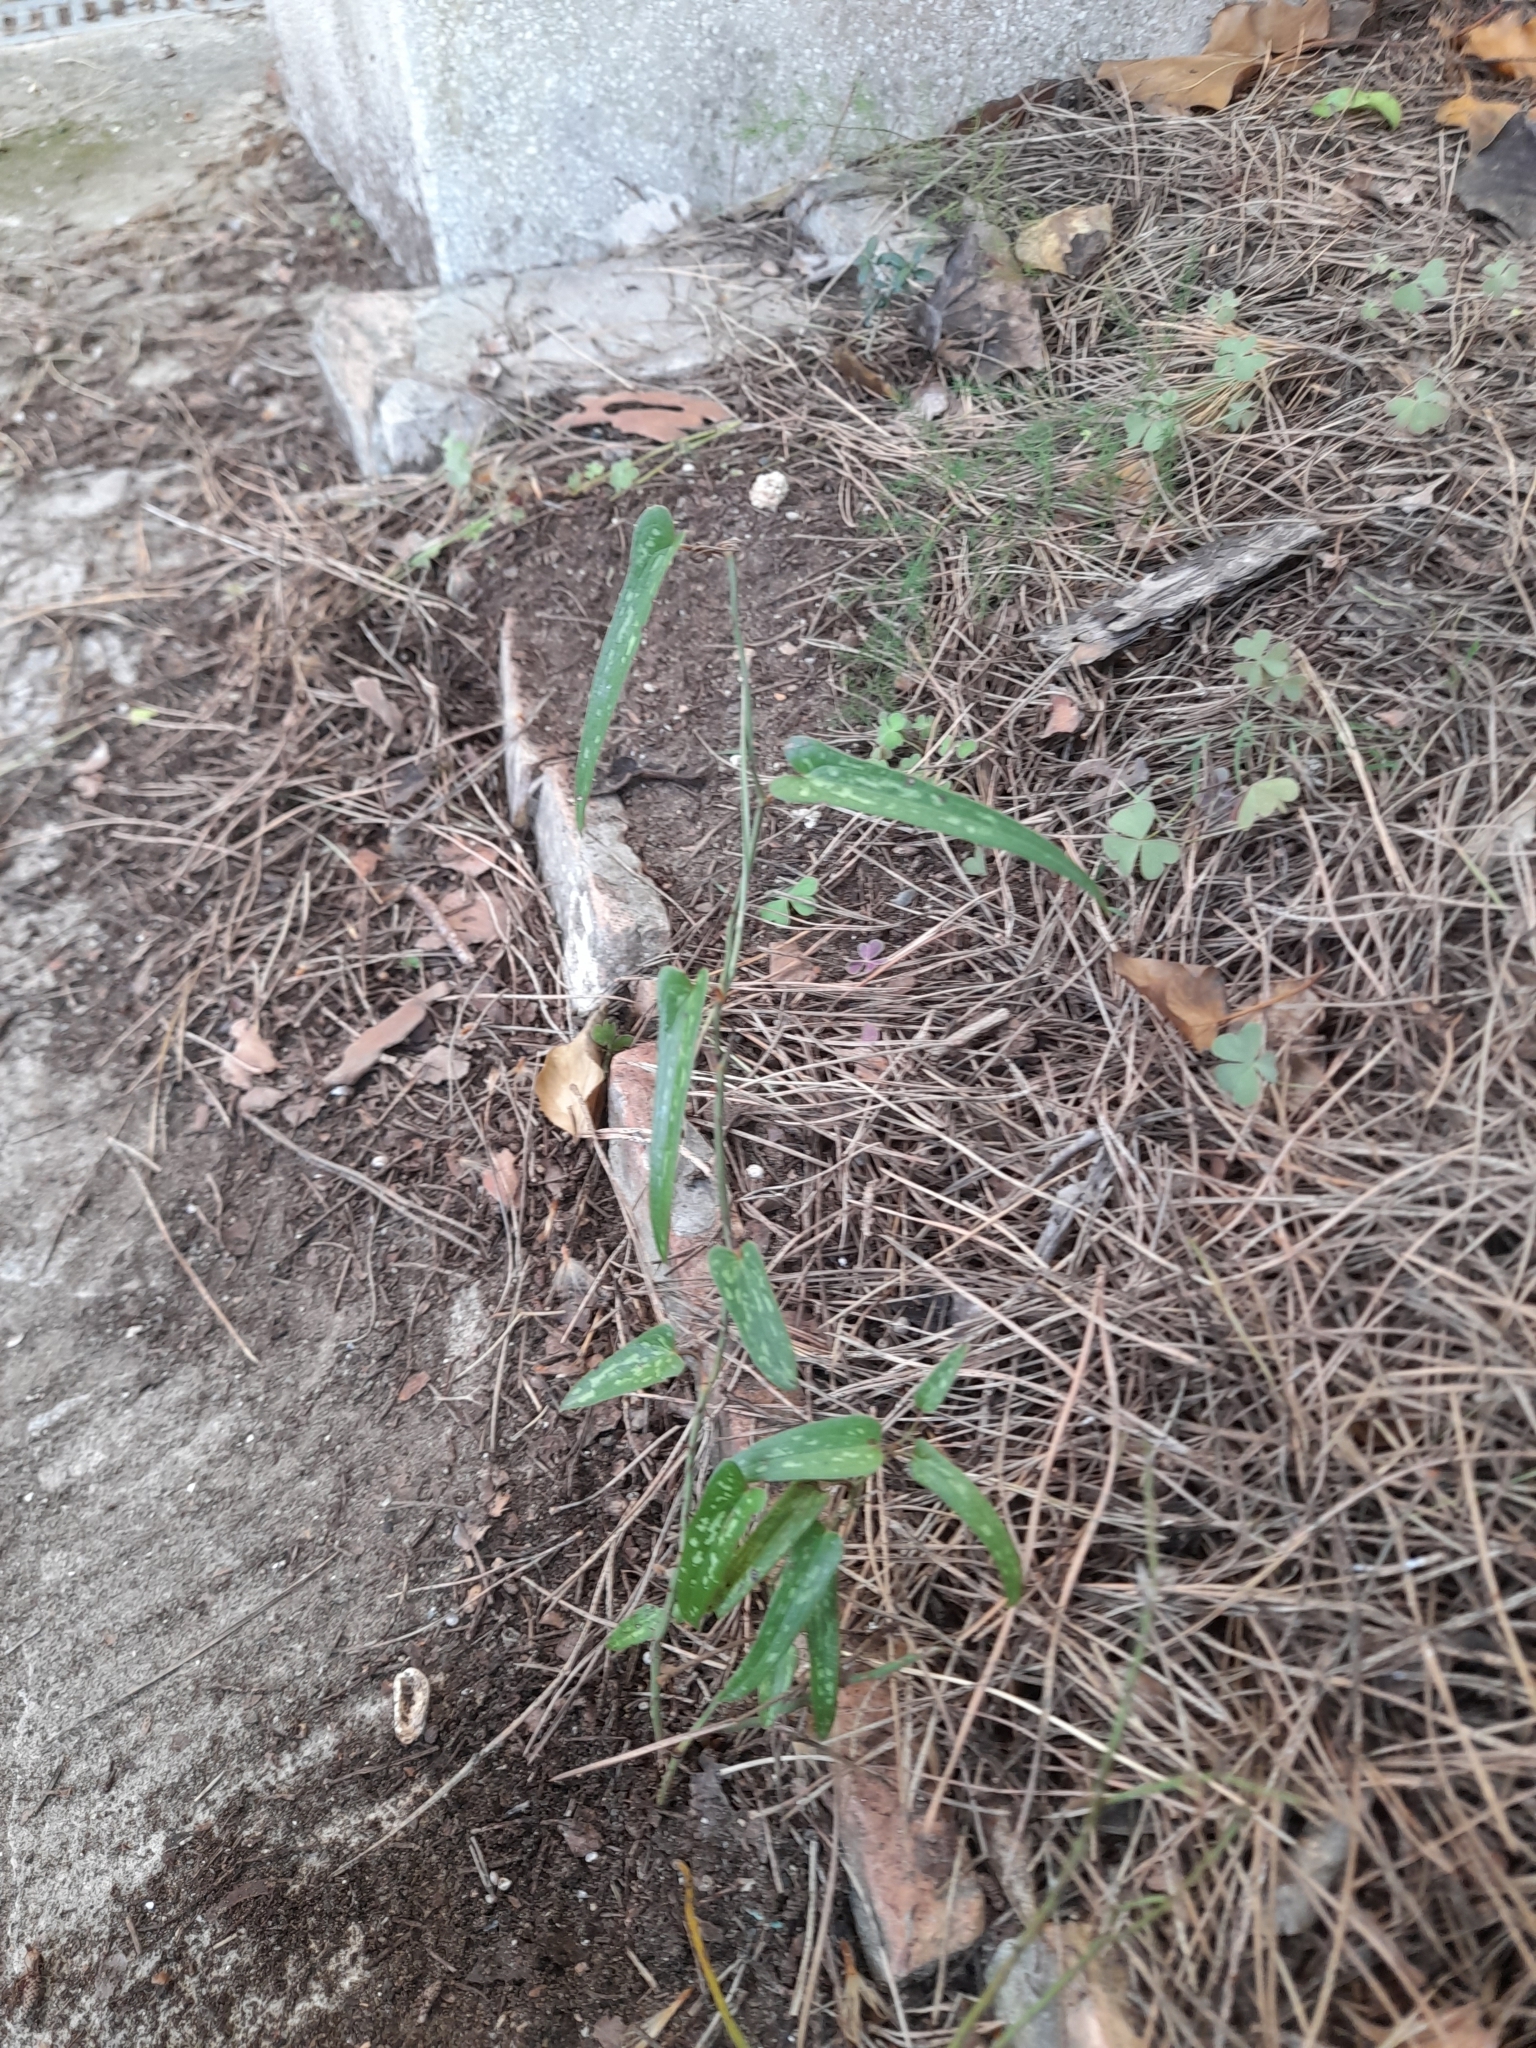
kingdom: Plantae
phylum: Tracheophyta
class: Liliopsida
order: Liliales
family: Smilacaceae
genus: Smilax
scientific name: Smilax aspera
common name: Common smilax
